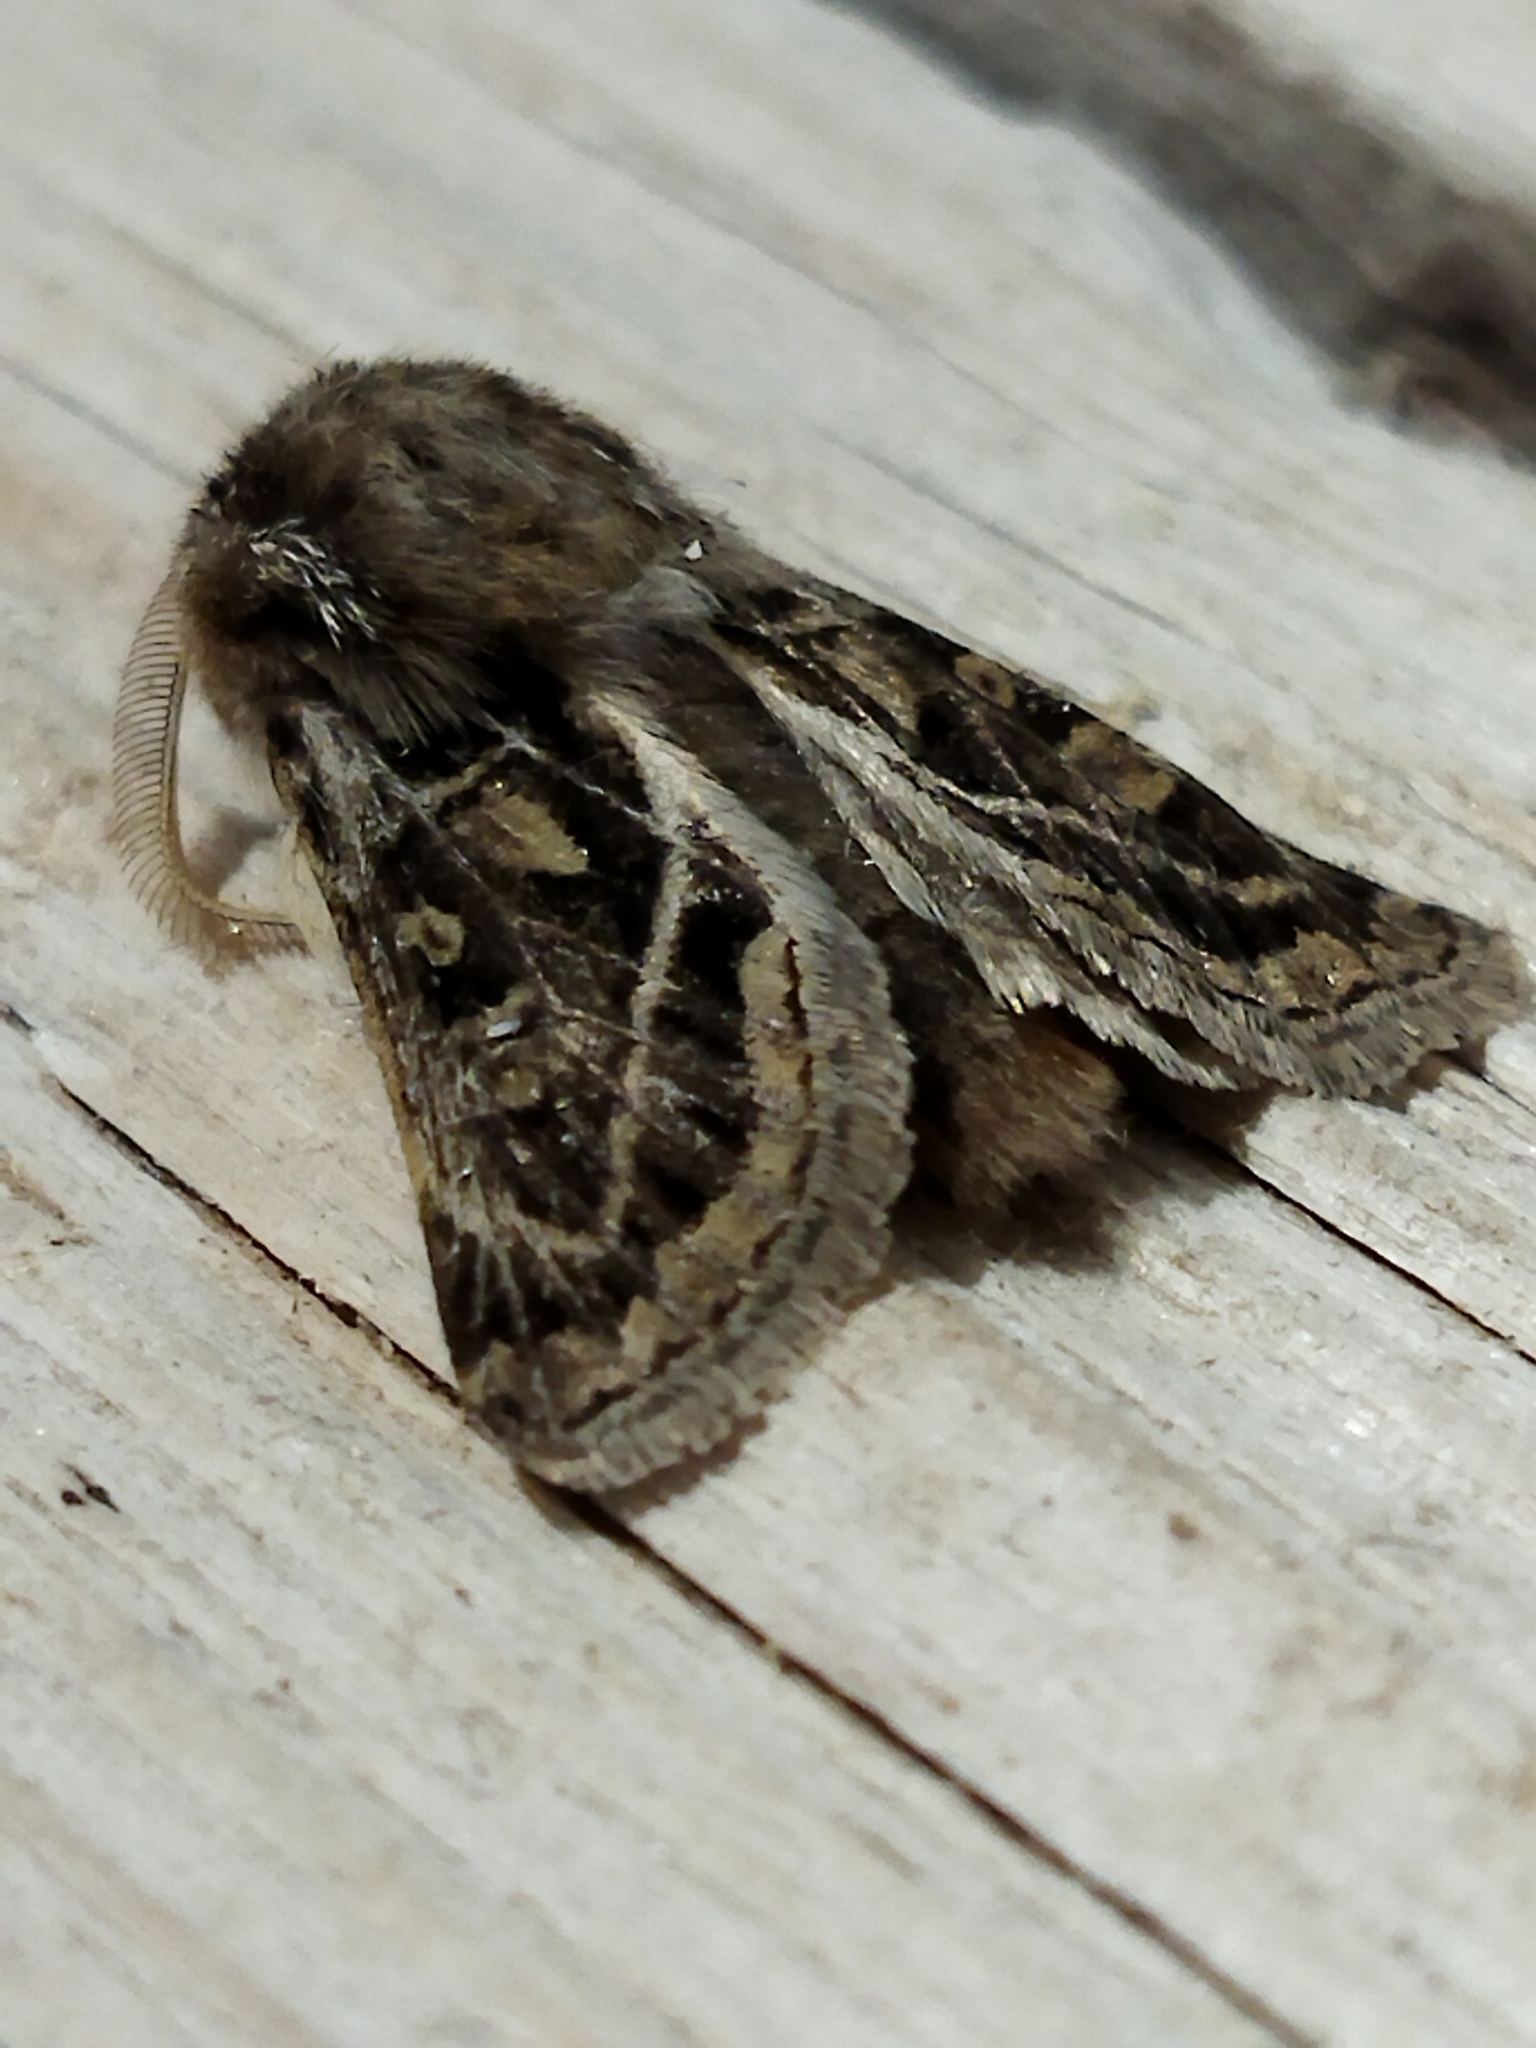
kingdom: Animalia
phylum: Arthropoda
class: Insecta
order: Lepidoptera
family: Noctuidae
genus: Ulochlaena
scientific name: Ulochlaena hirta
